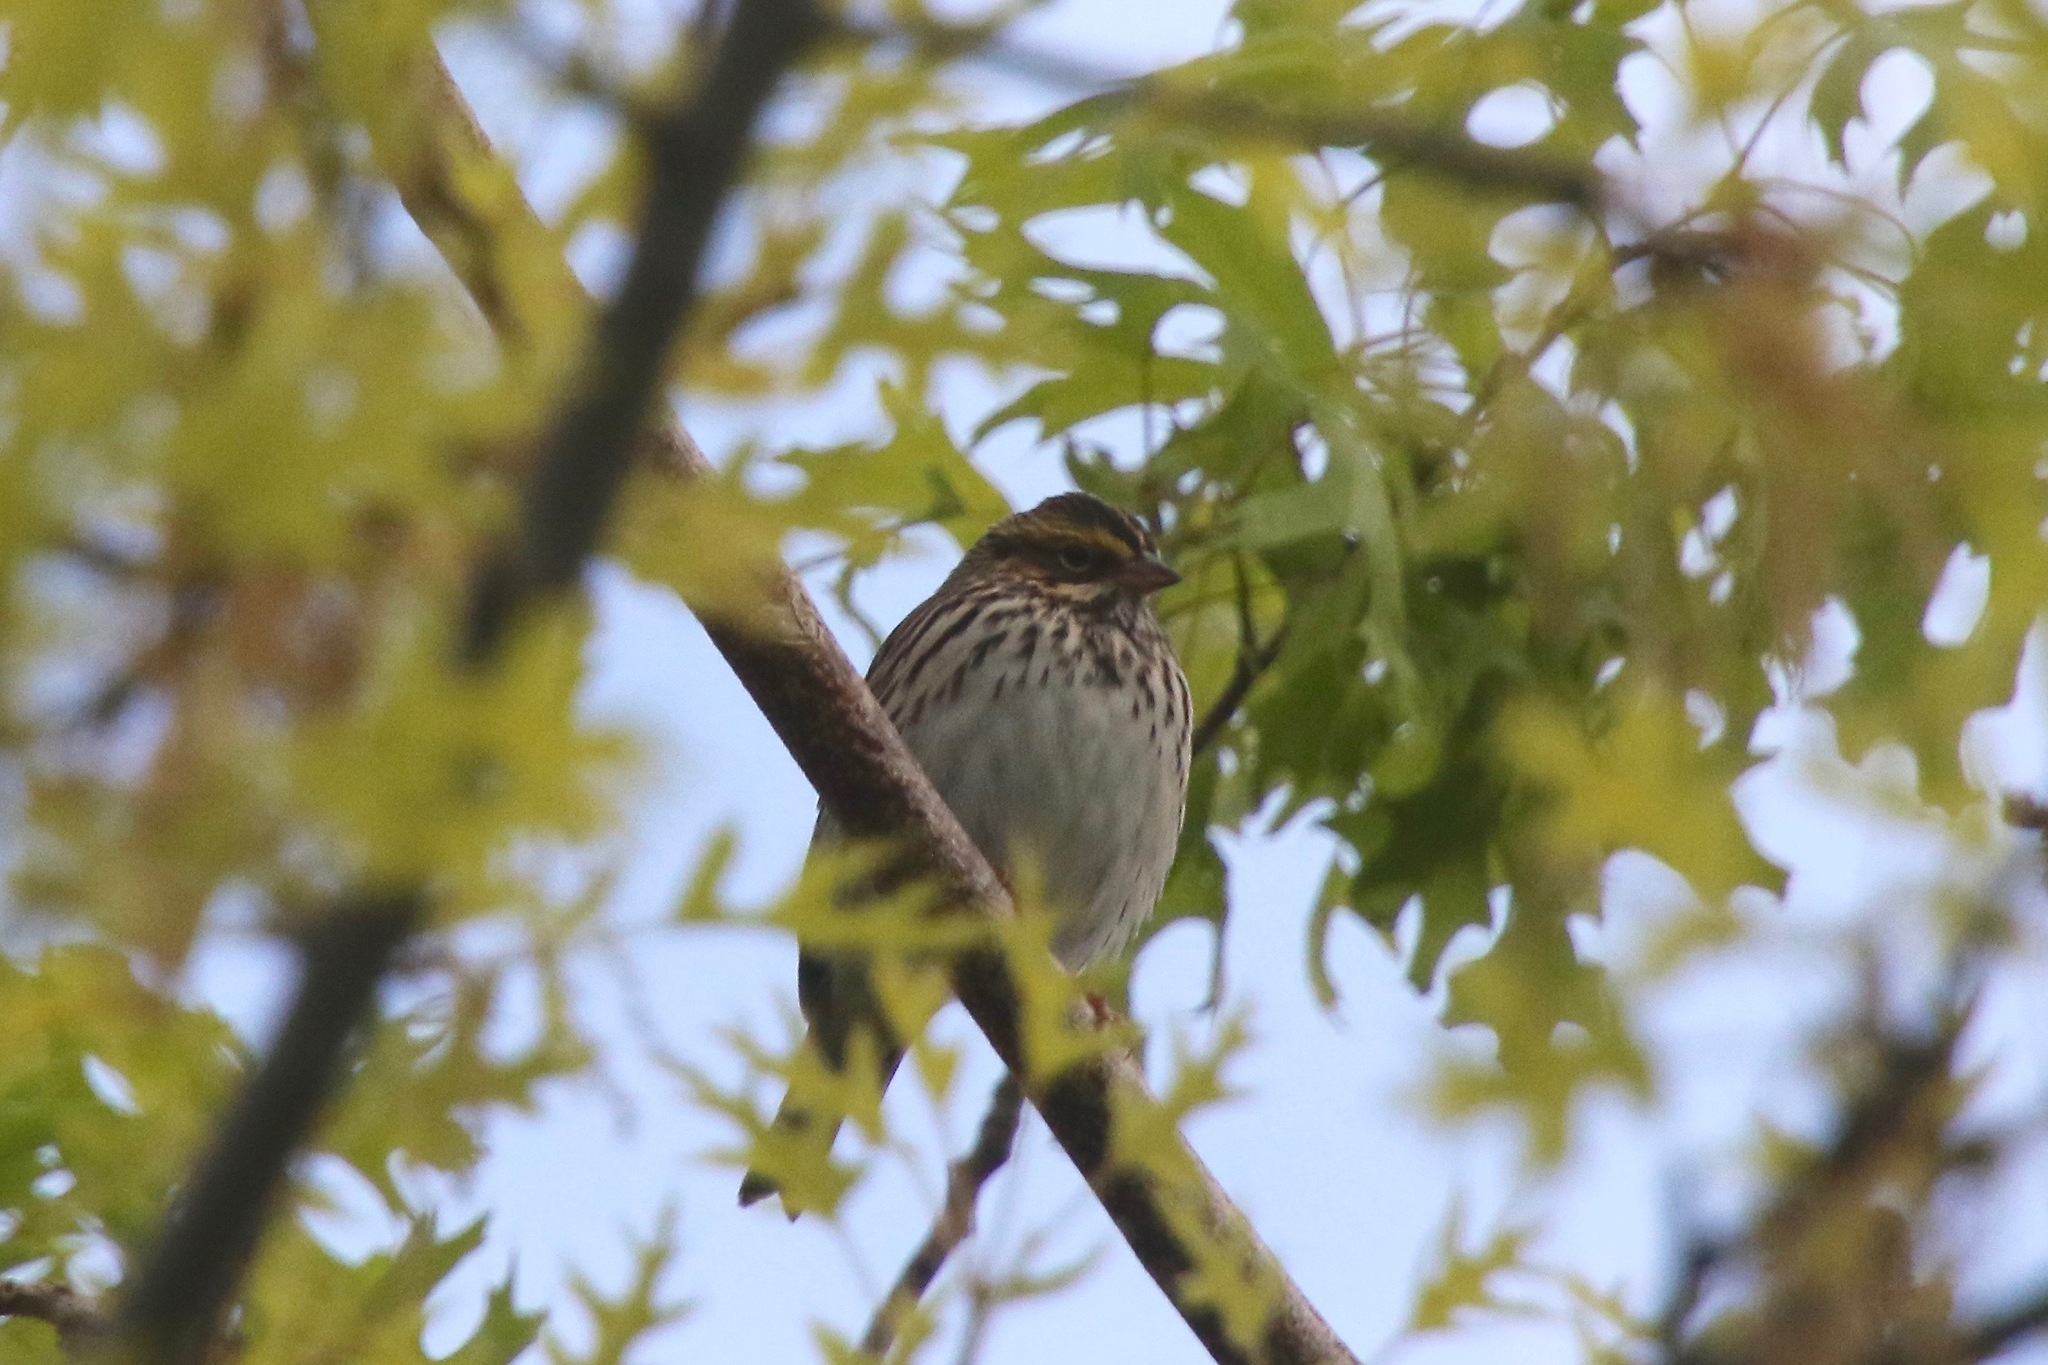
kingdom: Animalia
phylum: Chordata
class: Aves
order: Passeriformes
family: Passerellidae
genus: Passerculus
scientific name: Passerculus sandwichensis
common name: Savannah sparrow
